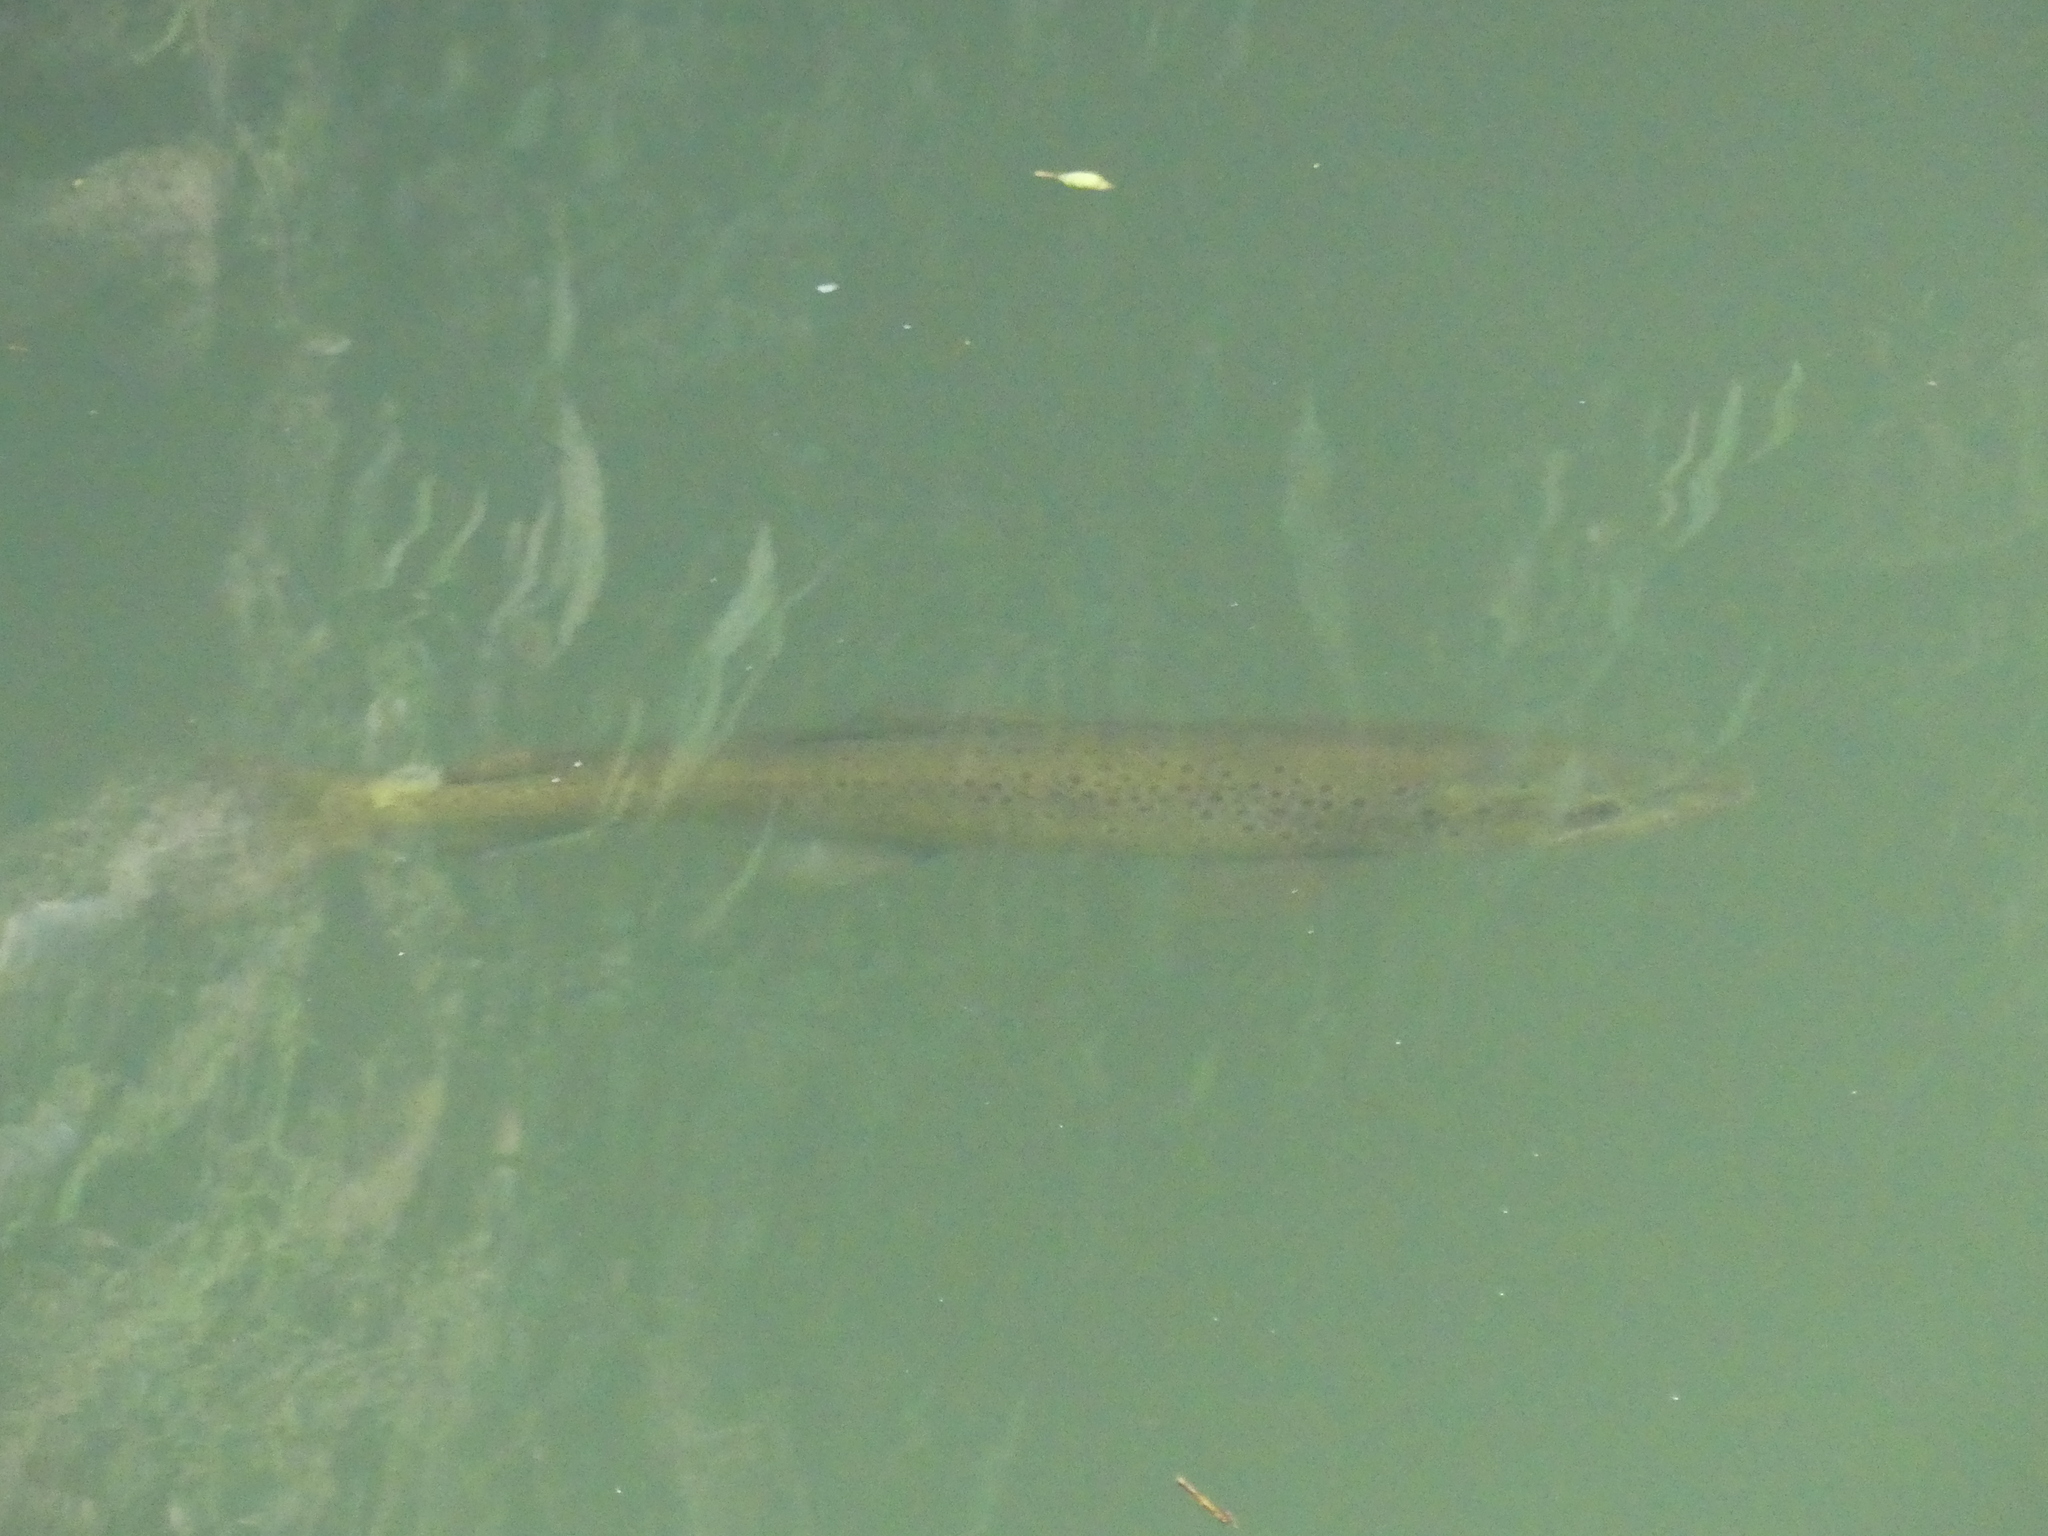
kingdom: Animalia
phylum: Chordata
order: Salmoniformes
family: Salmonidae
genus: Salmo
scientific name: Salmo trutta
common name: Brown trout
